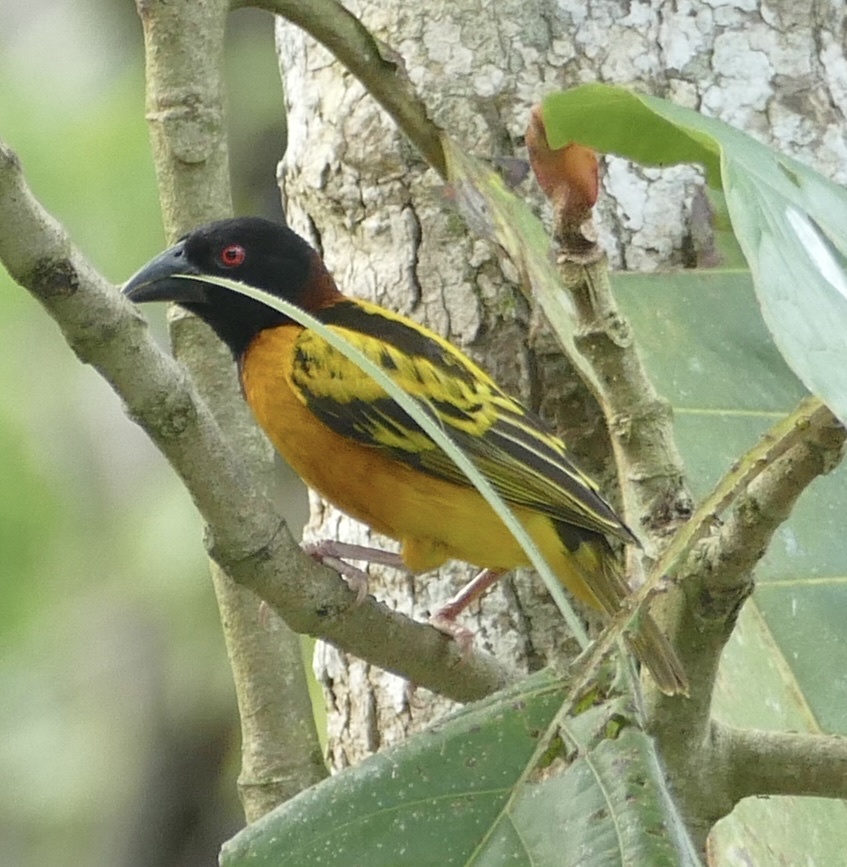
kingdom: Animalia
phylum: Chordata
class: Aves
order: Passeriformes
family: Ploceidae
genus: Ploceus
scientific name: Ploceus cucullatus
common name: Village weaver
